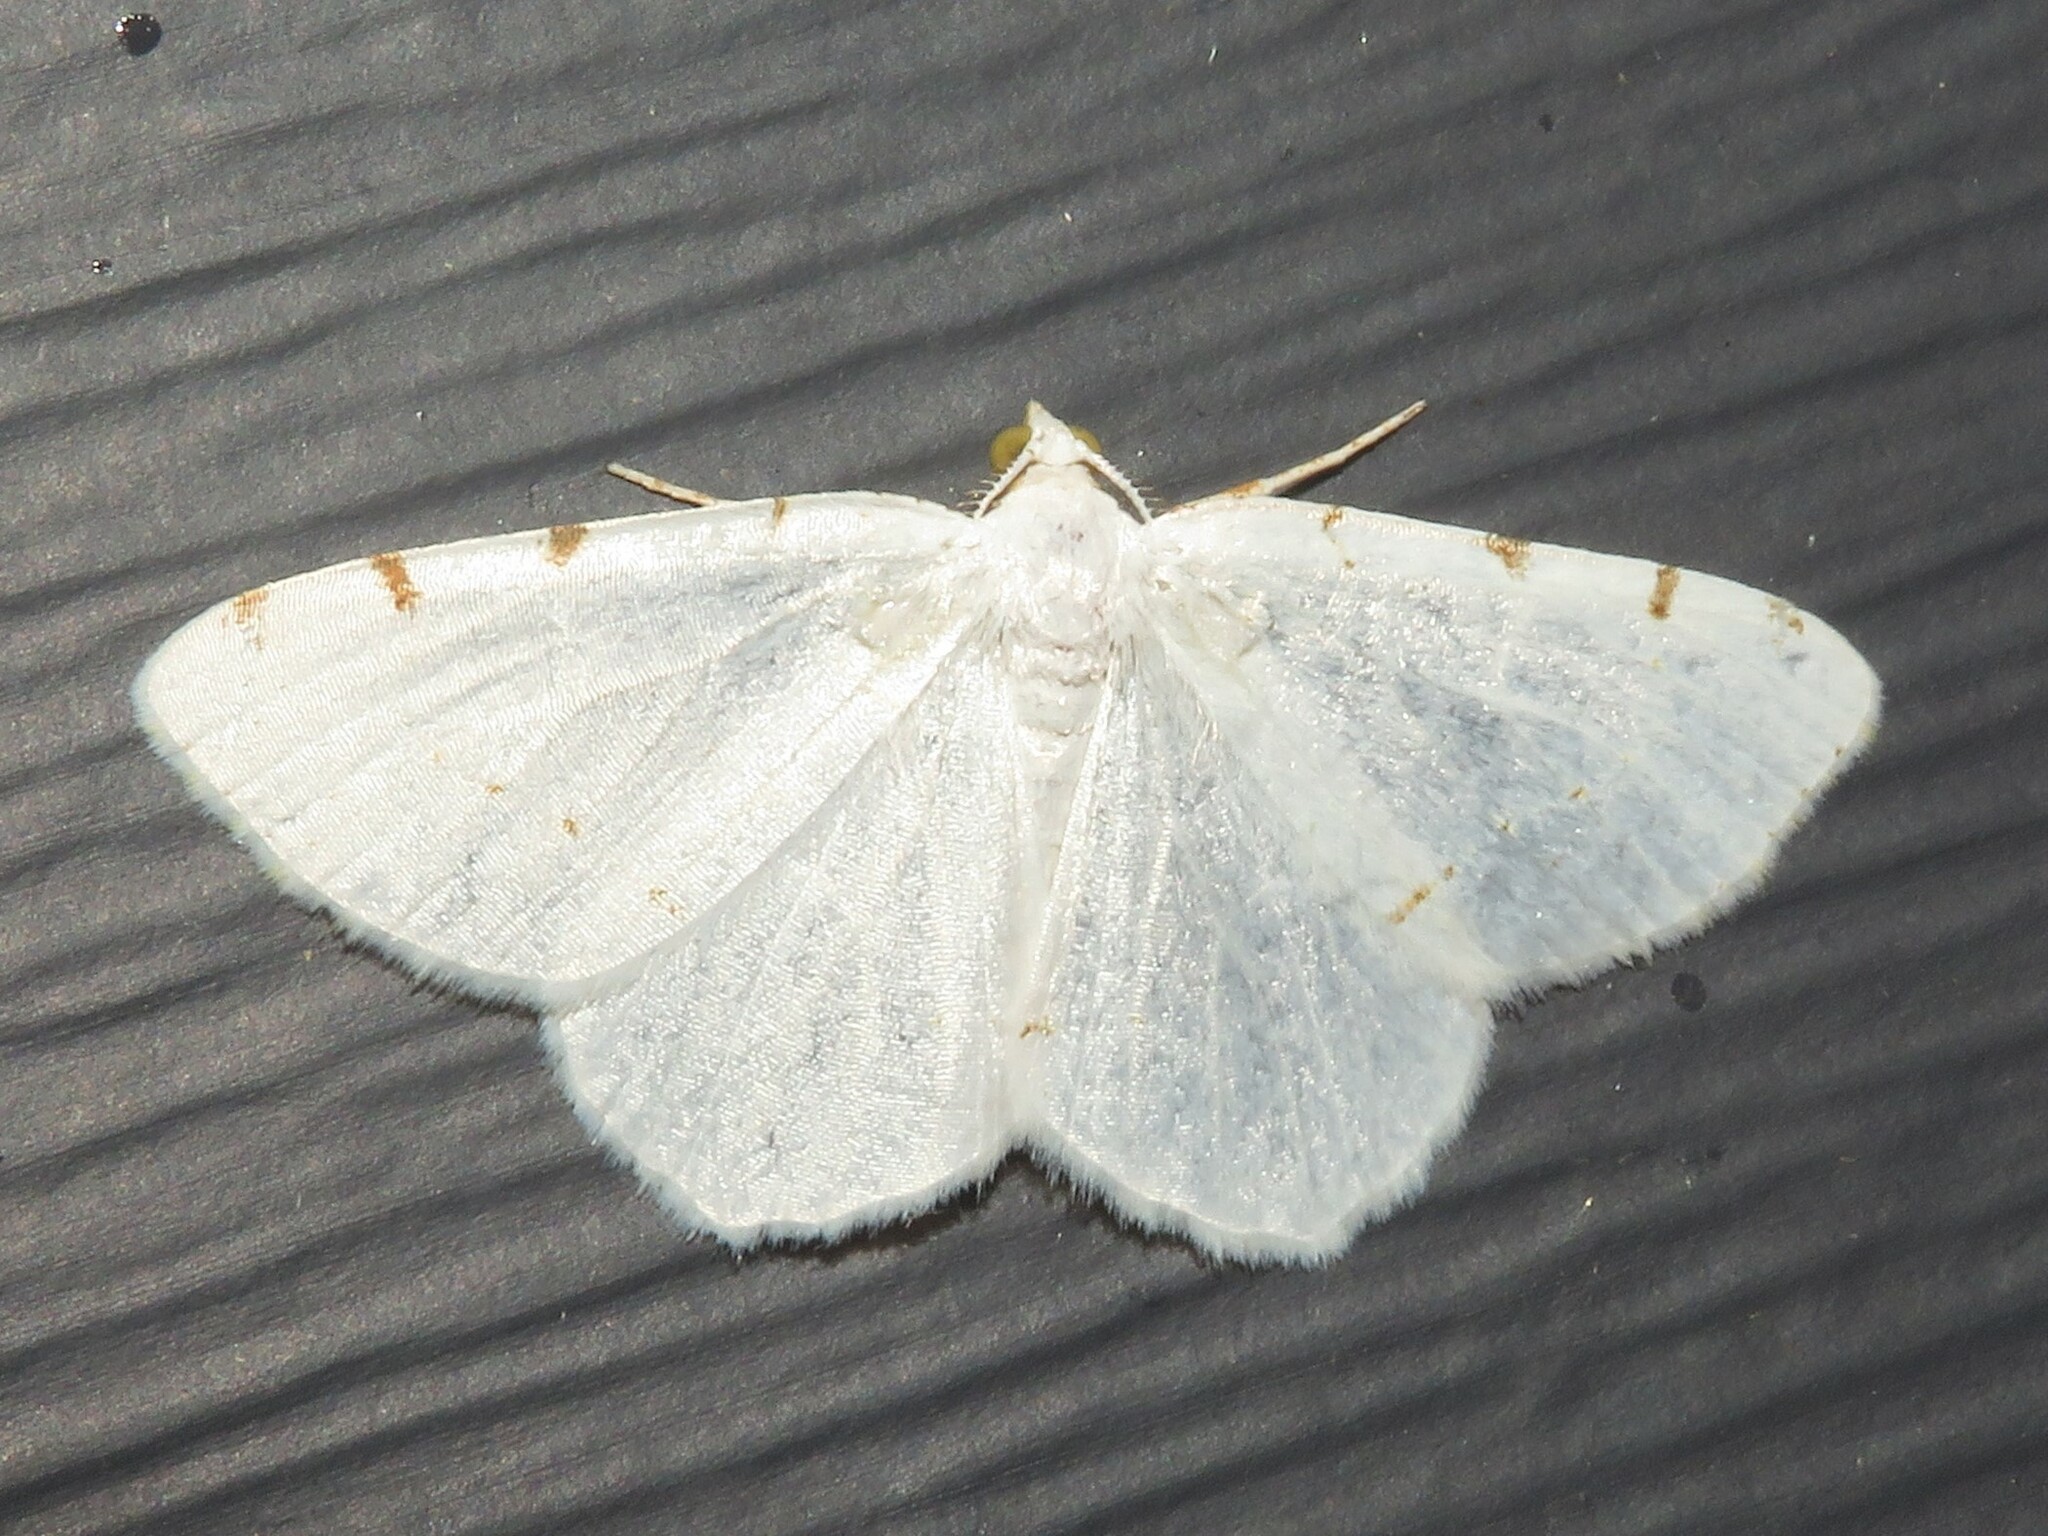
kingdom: Animalia
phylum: Arthropoda
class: Insecta
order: Lepidoptera
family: Geometridae
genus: Macaria
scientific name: Macaria pustularia
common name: Lesser maple spanworm moth
